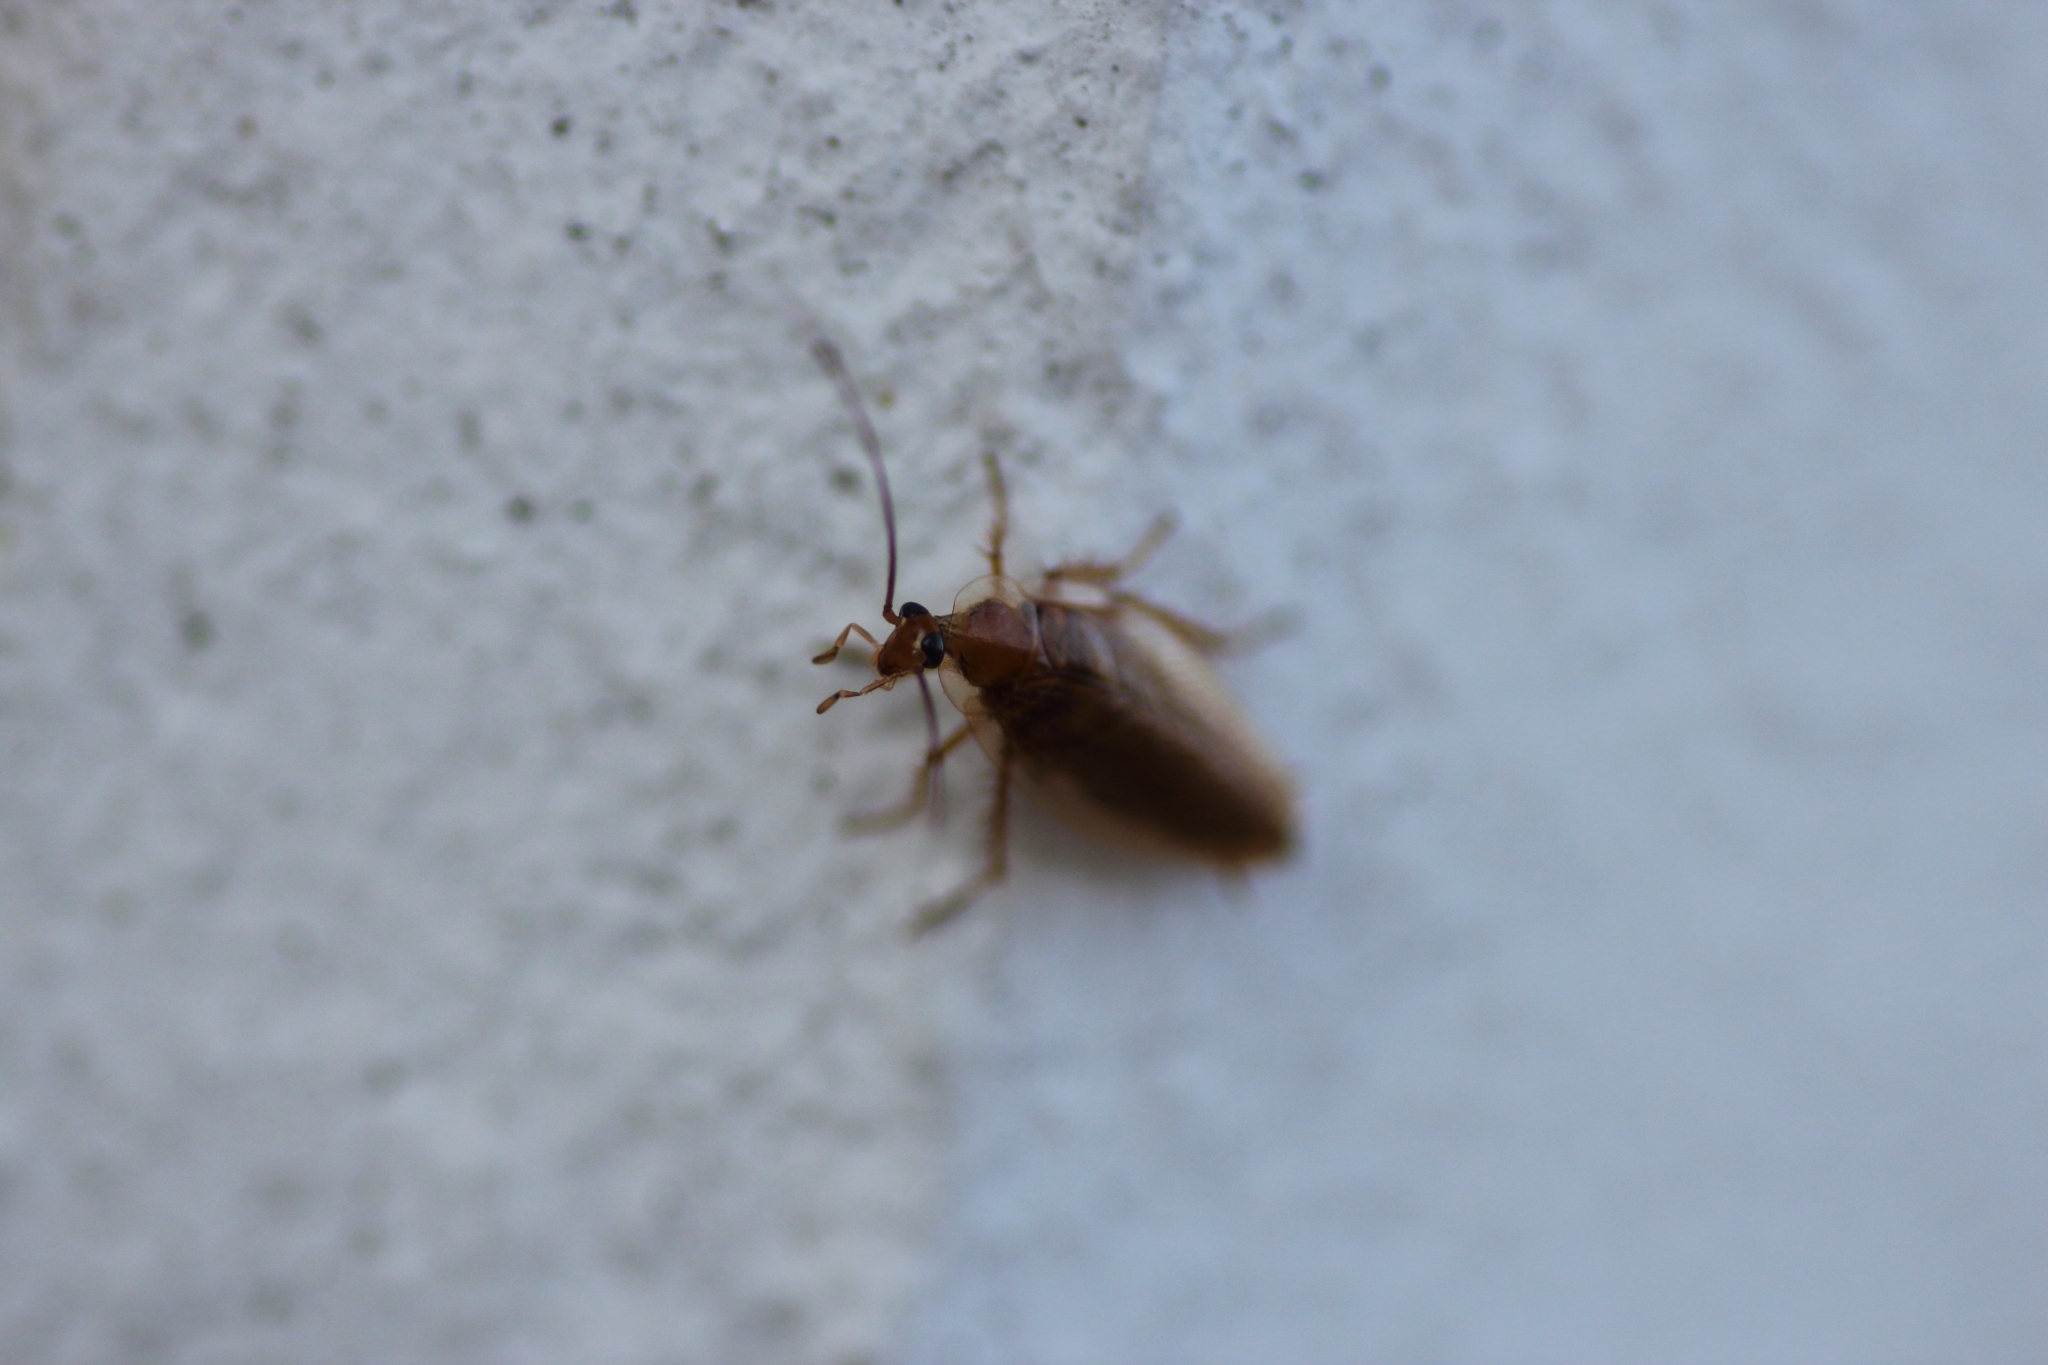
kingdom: Animalia
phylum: Arthropoda
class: Insecta
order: Blattodea
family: Ectobiidae
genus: Ectobius
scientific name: Ectobius vittiventris
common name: Garden cockroach
